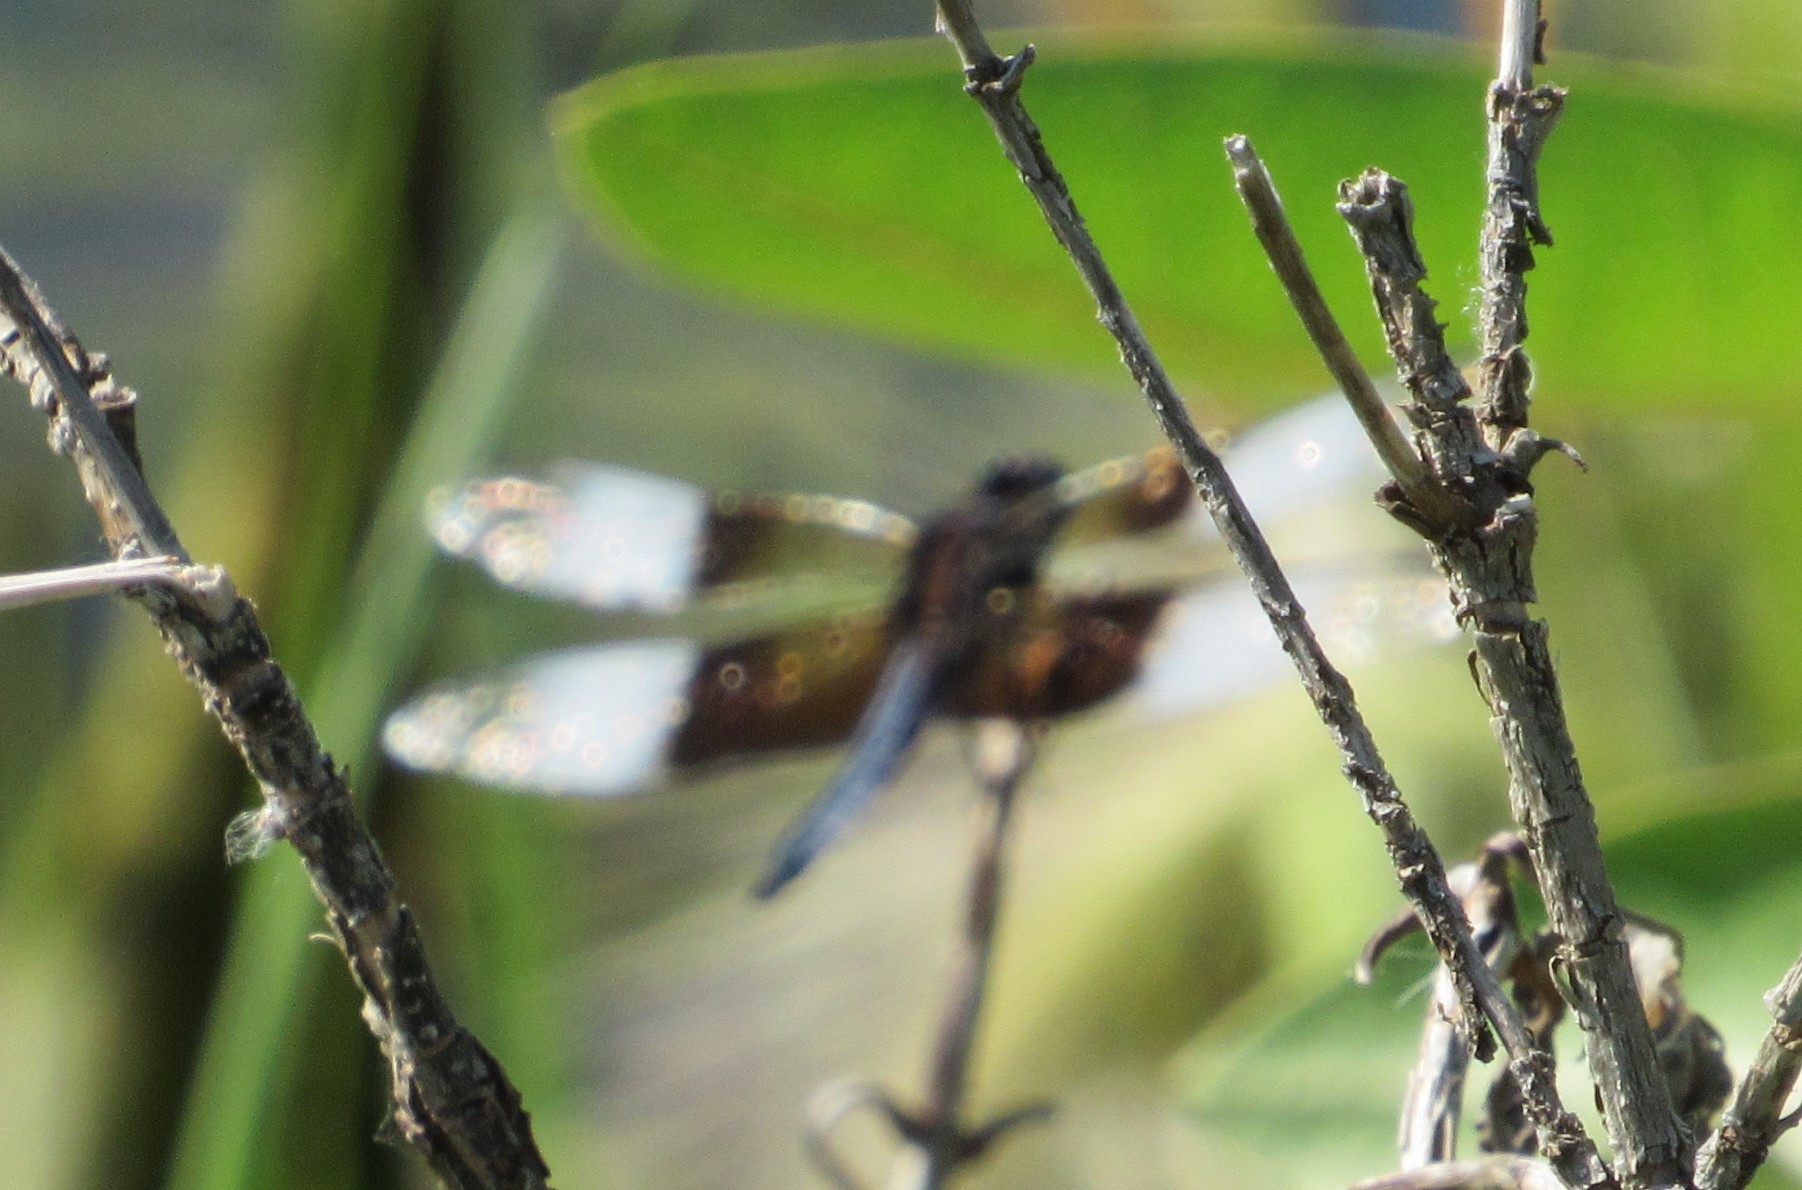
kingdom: Animalia
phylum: Arthropoda
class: Insecta
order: Odonata
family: Libellulidae
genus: Libellula
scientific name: Libellula luctuosa
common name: Widow skimmer
